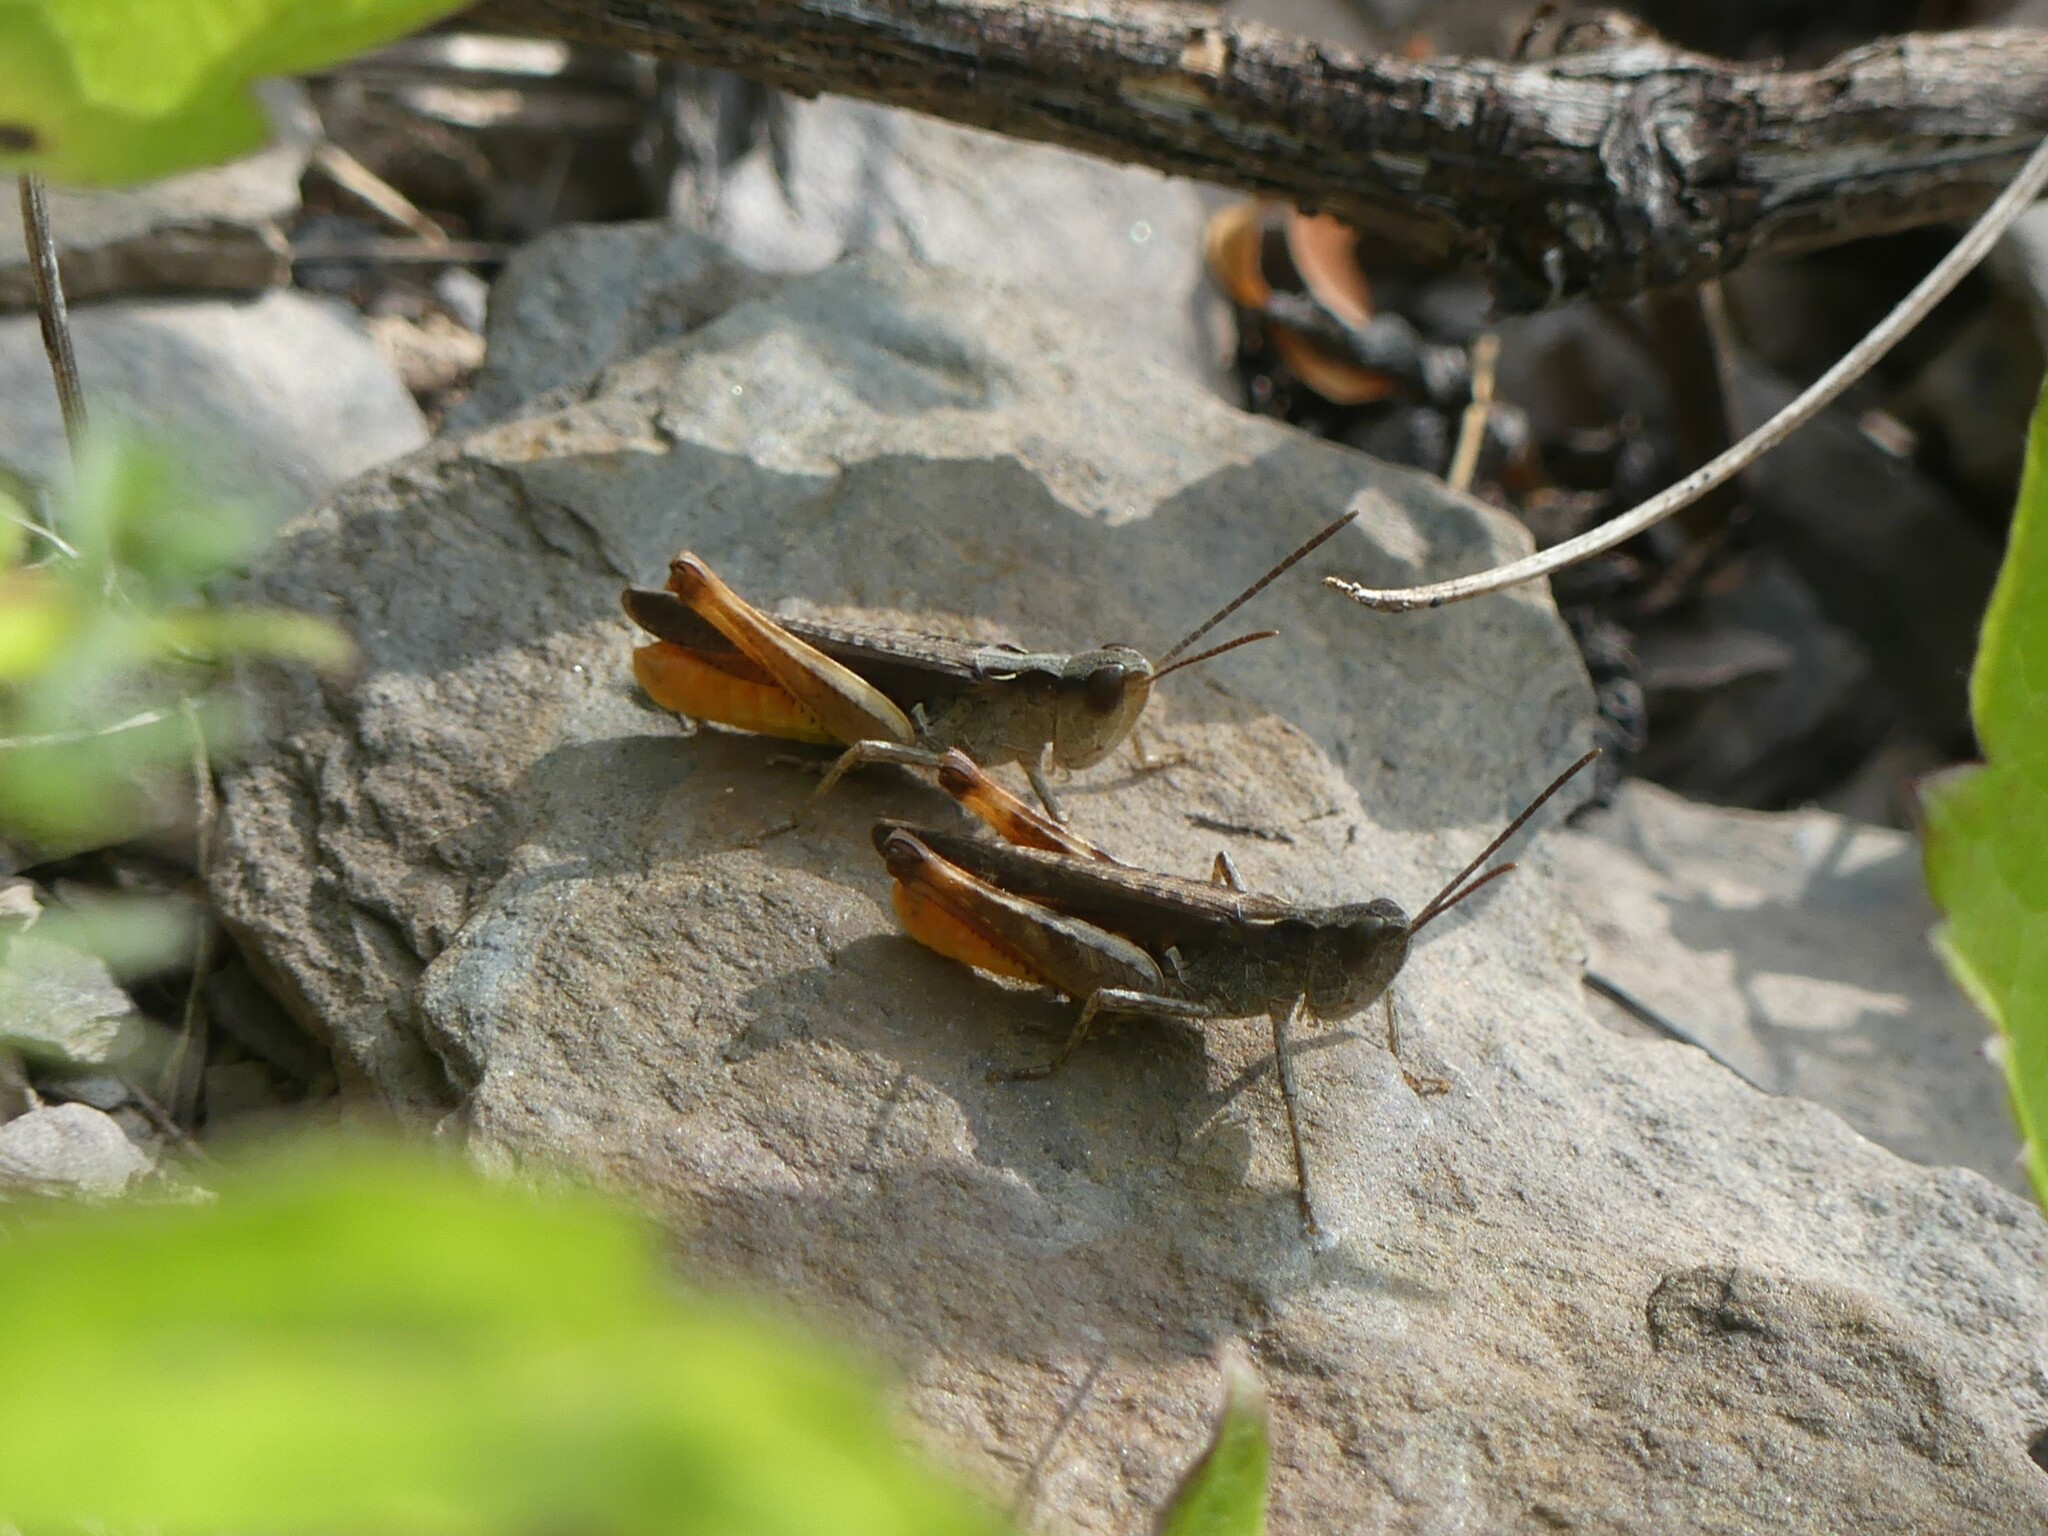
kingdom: Animalia
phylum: Arthropoda
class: Insecta
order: Orthoptera
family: Acrididae
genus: Chorthippus
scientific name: Chorthippus vagans
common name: Heath grasshopper
